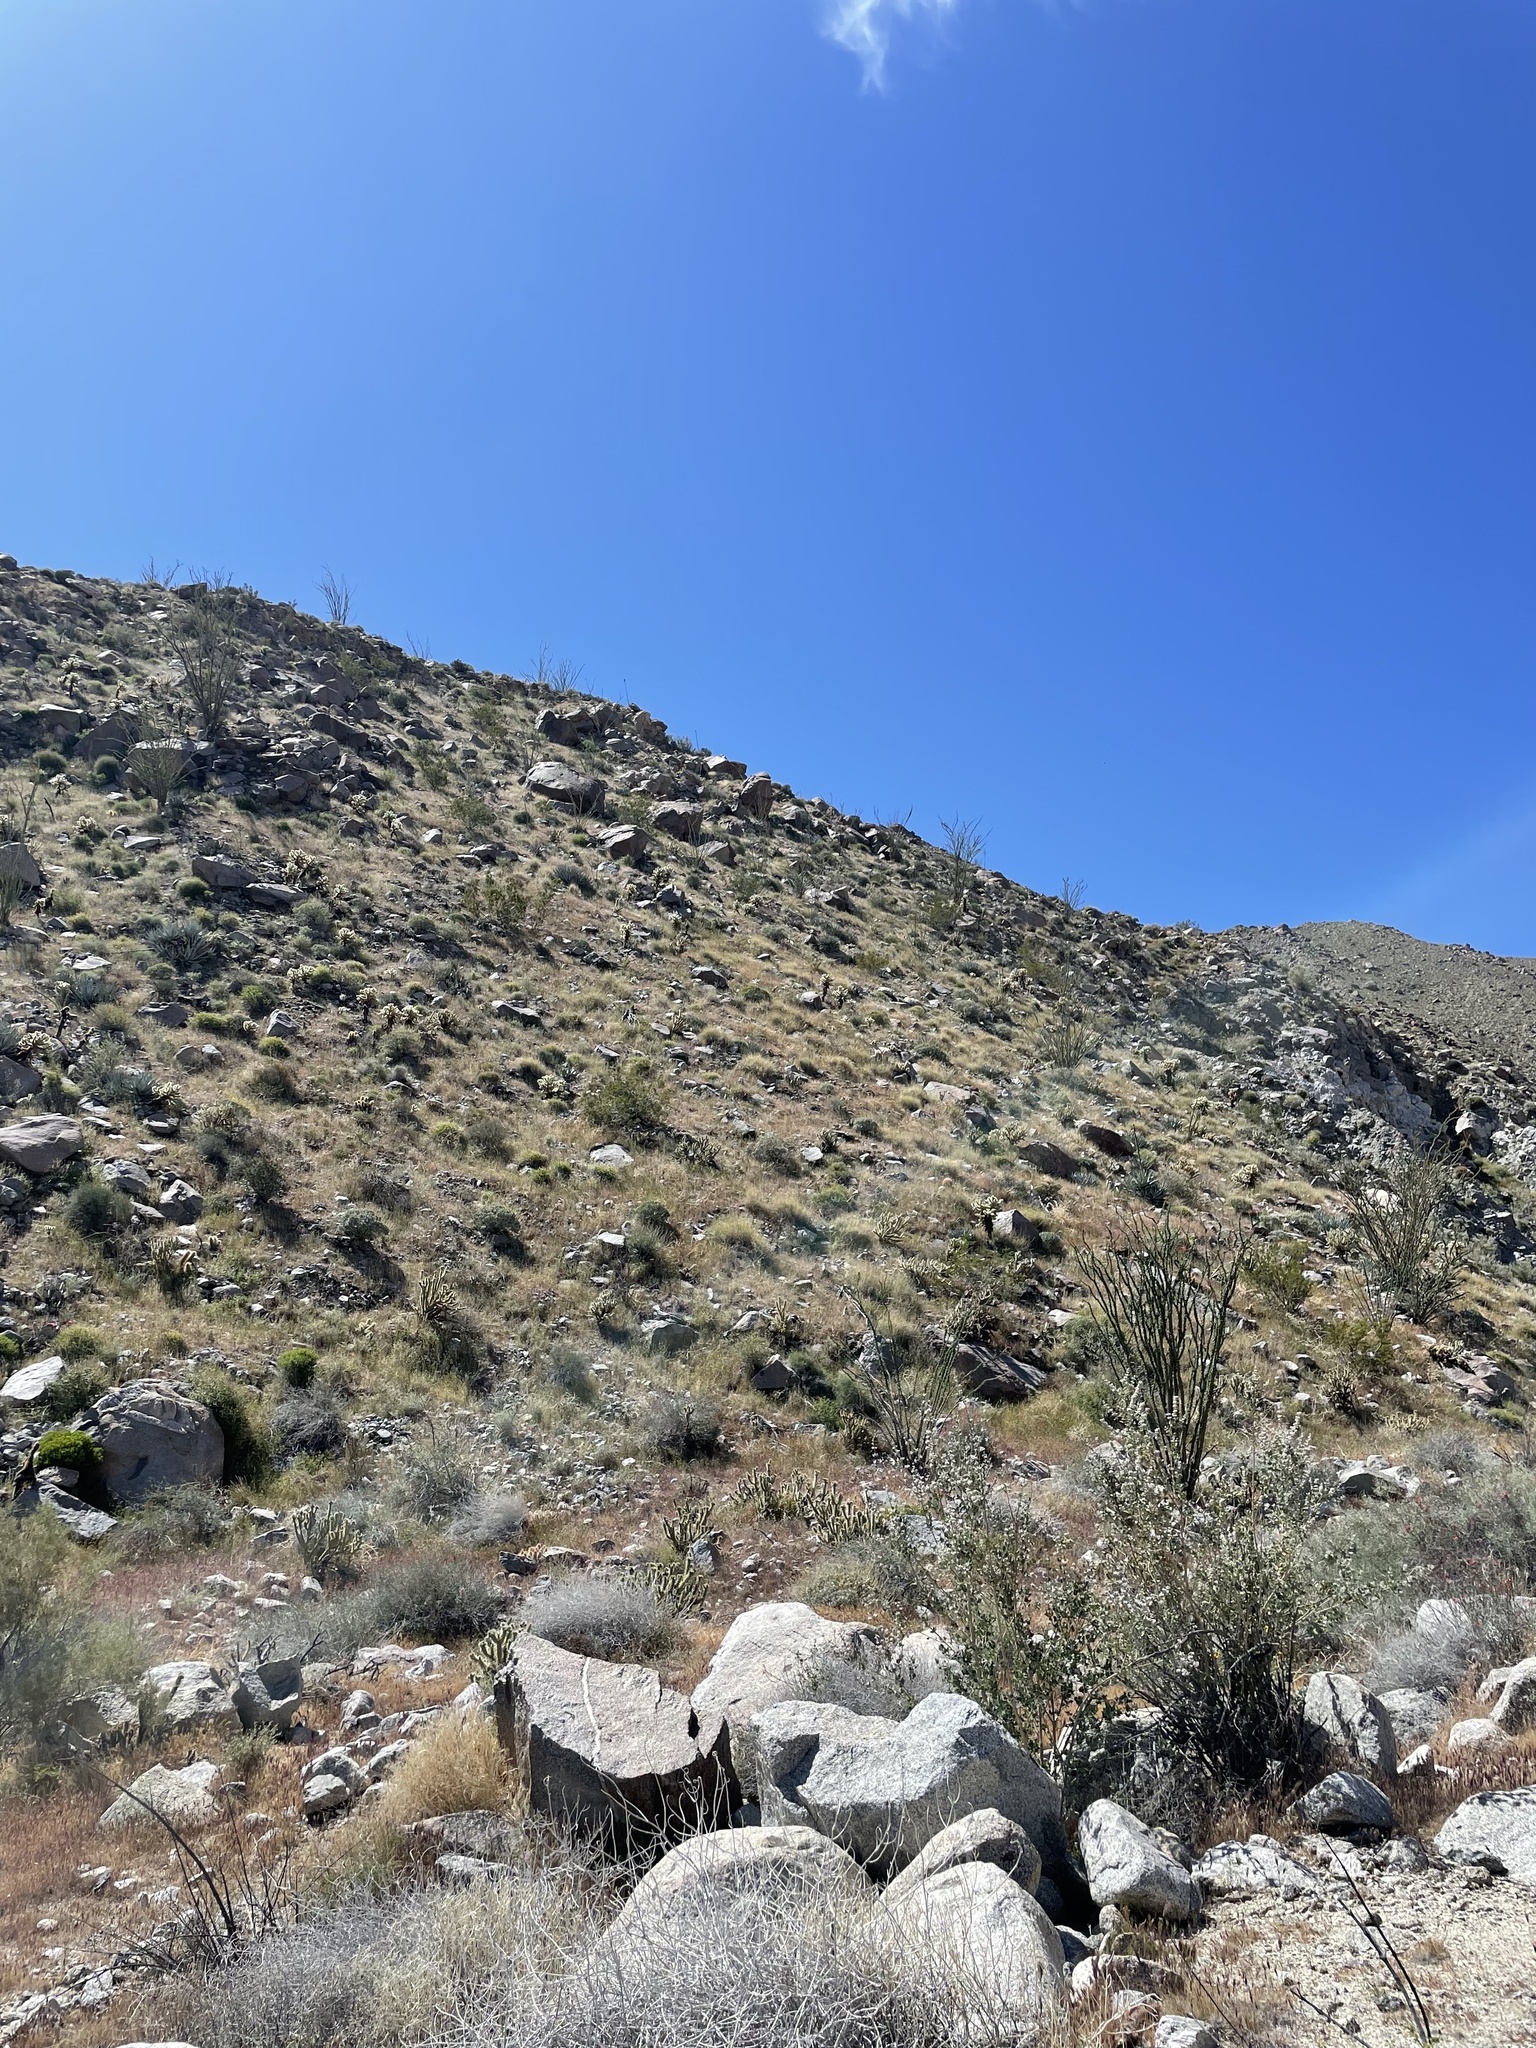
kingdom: Animalia
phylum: Chordata
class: Mammalia
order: Artiodactyla
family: Bovidae
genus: Ovis
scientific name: Ovis canadensis
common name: Bighorn sheep
